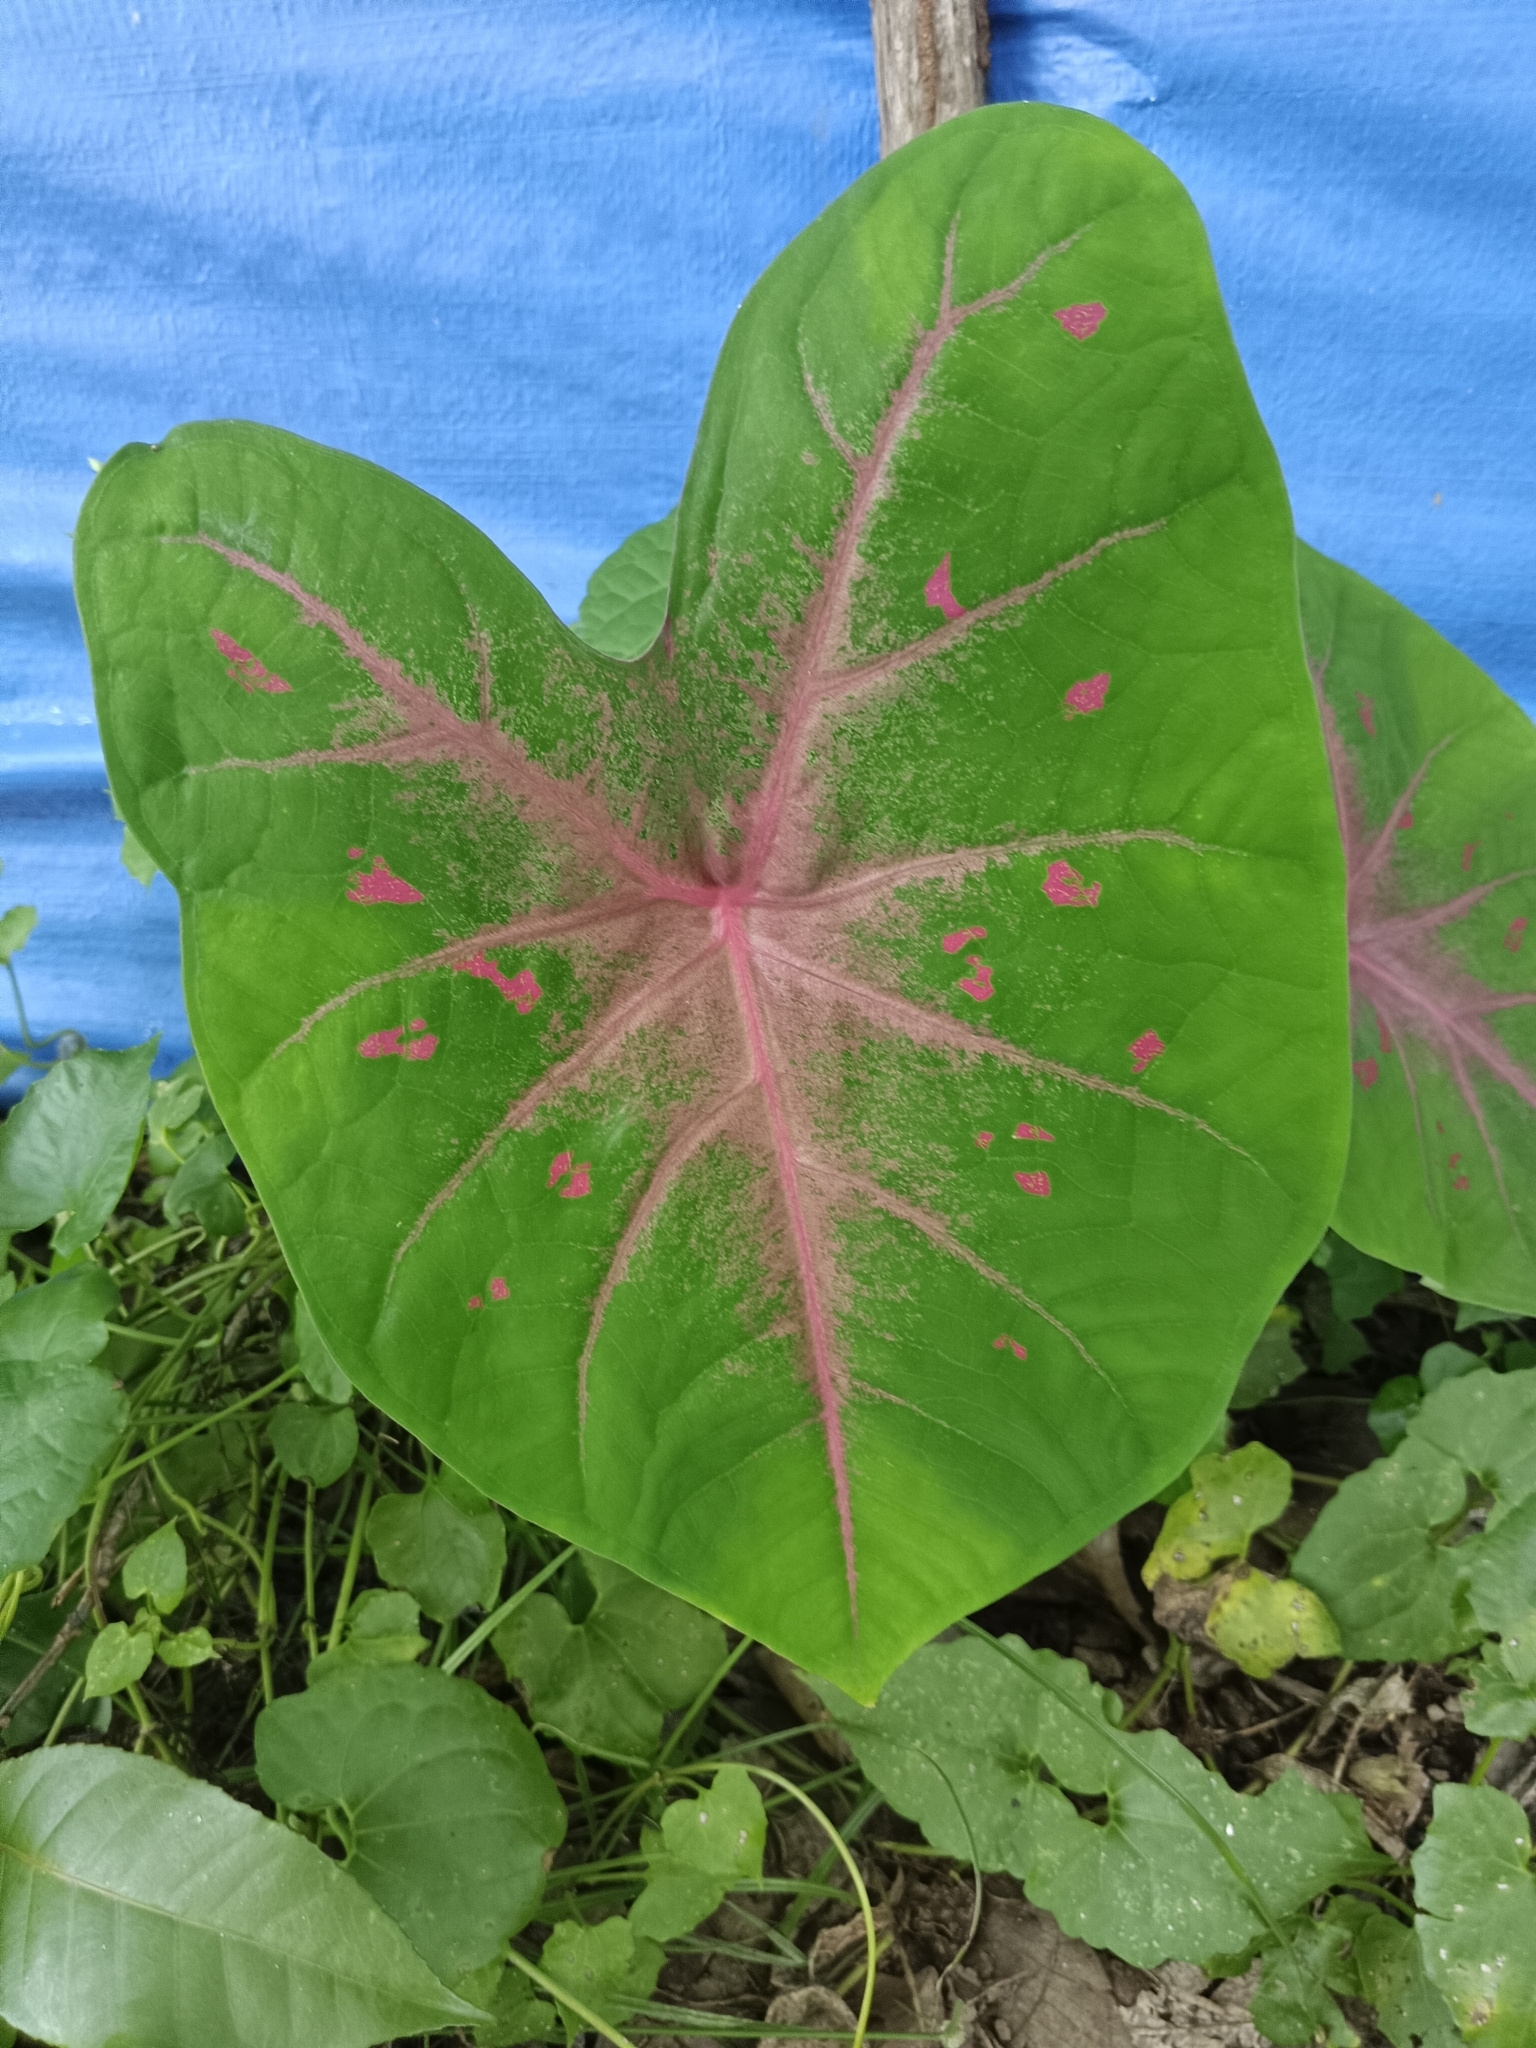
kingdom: Plantae
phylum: Tracheophyta
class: Liliopsida
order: Alismatales
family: Araceae
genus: Caladium
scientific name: Caladium bicolor
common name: Artist's pallet
